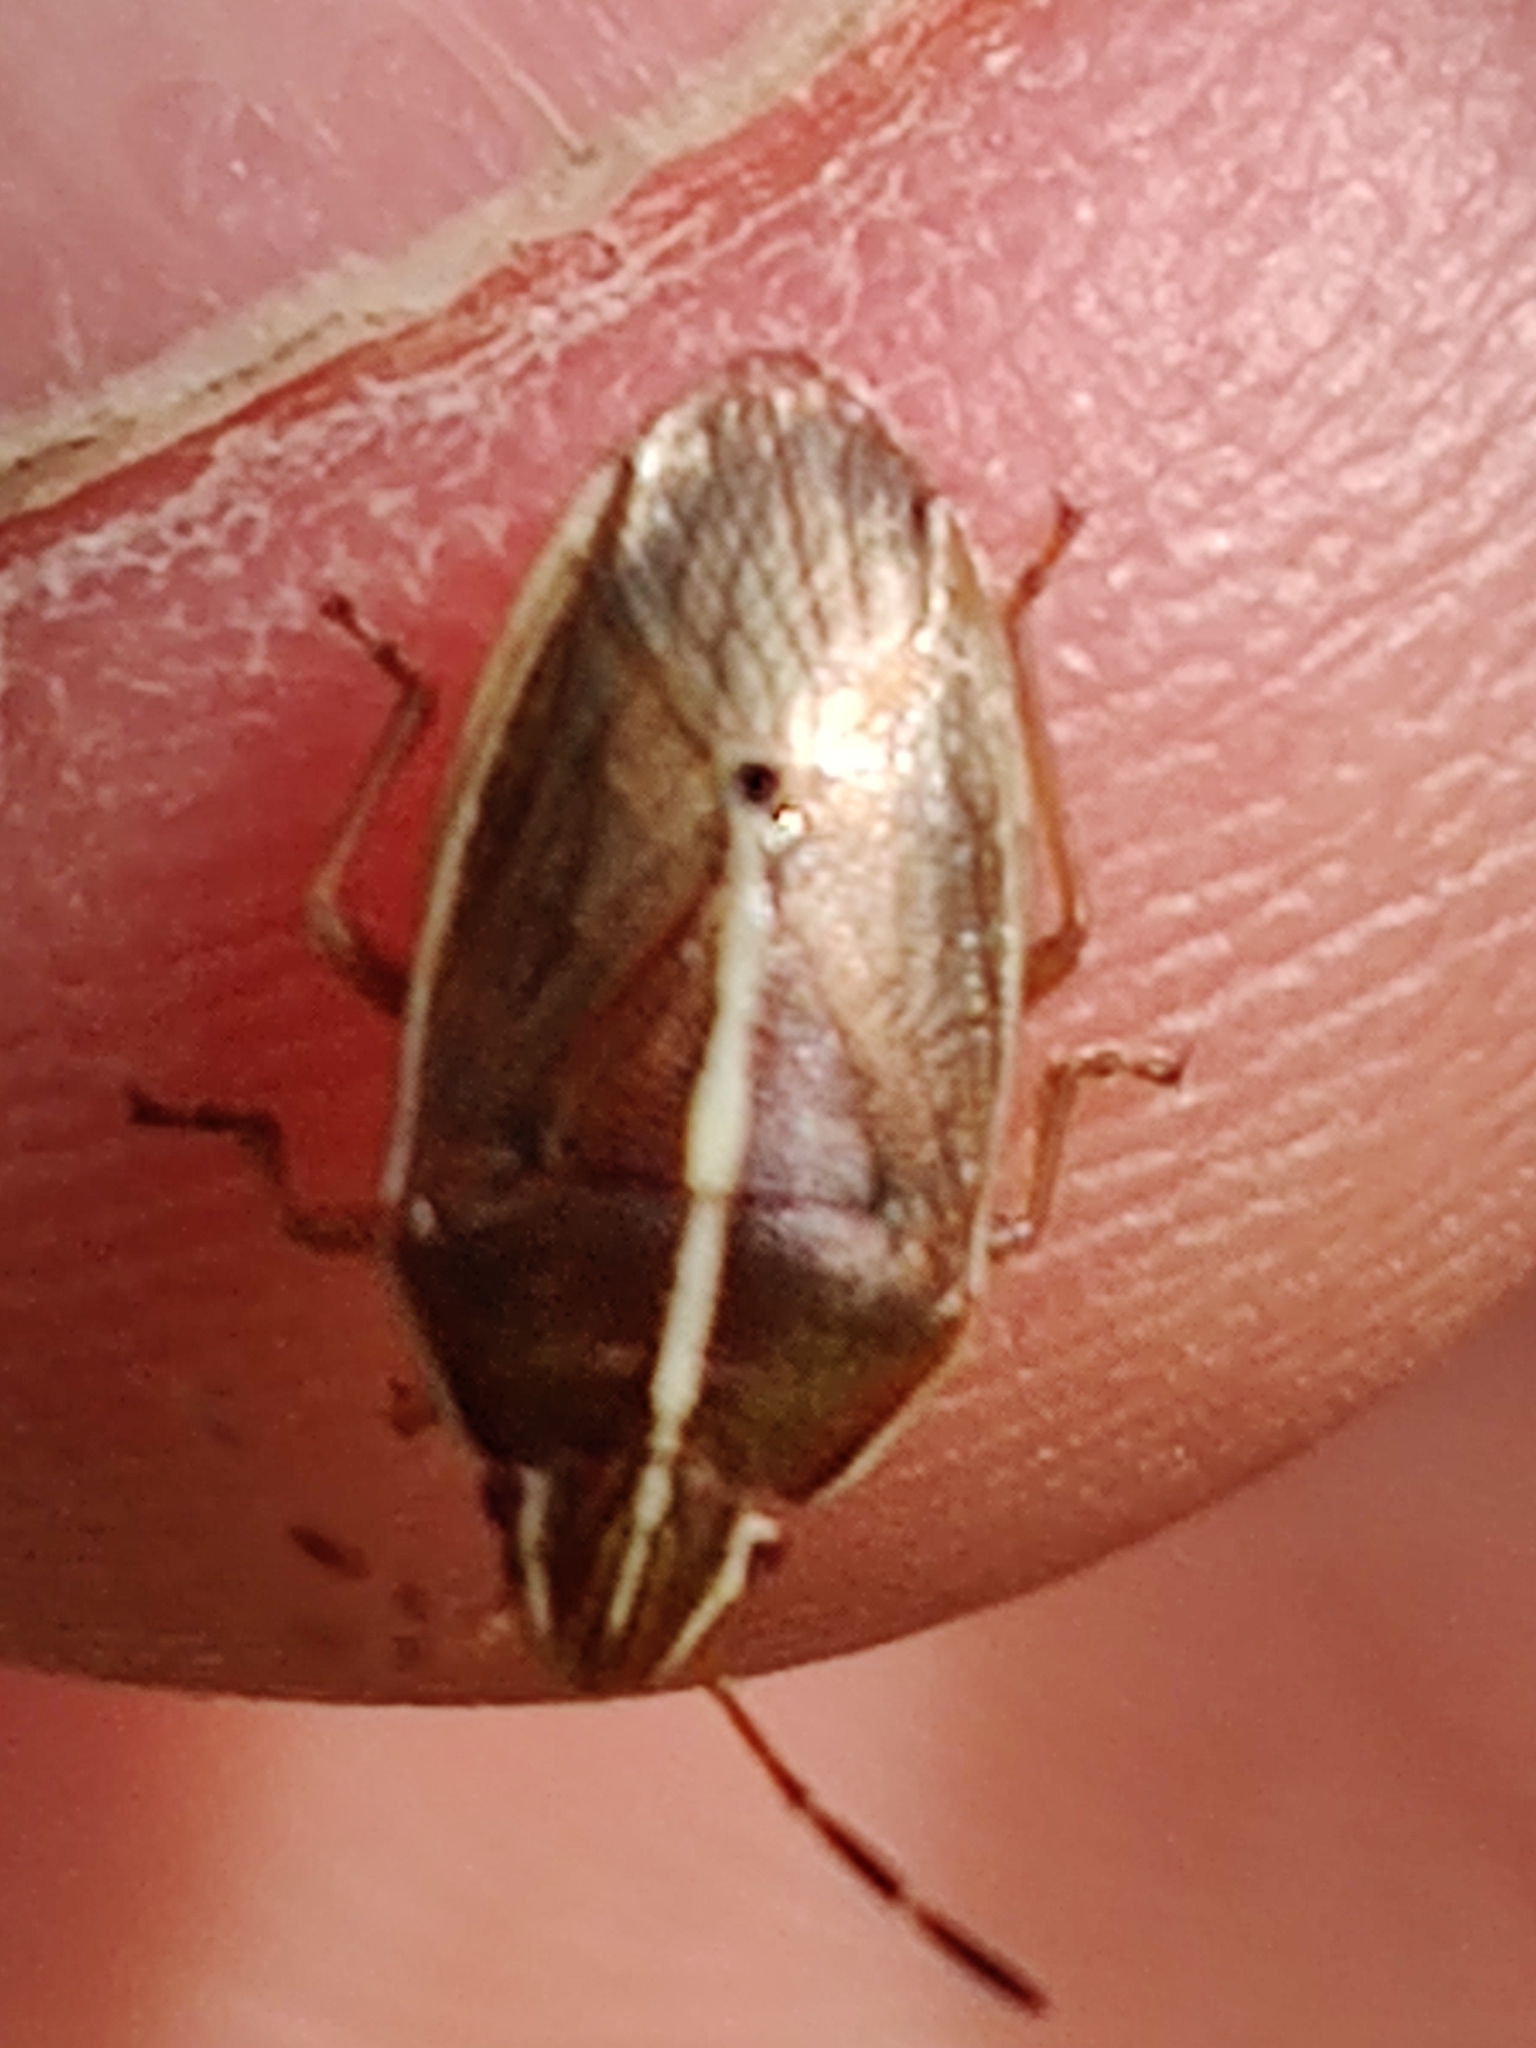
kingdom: Animalia
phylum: Arthropoda
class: Insecta
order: Hemiptera
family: Acanthosomatidae
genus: Rhopalimorpha
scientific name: Rhopalimorpha lineolaris
